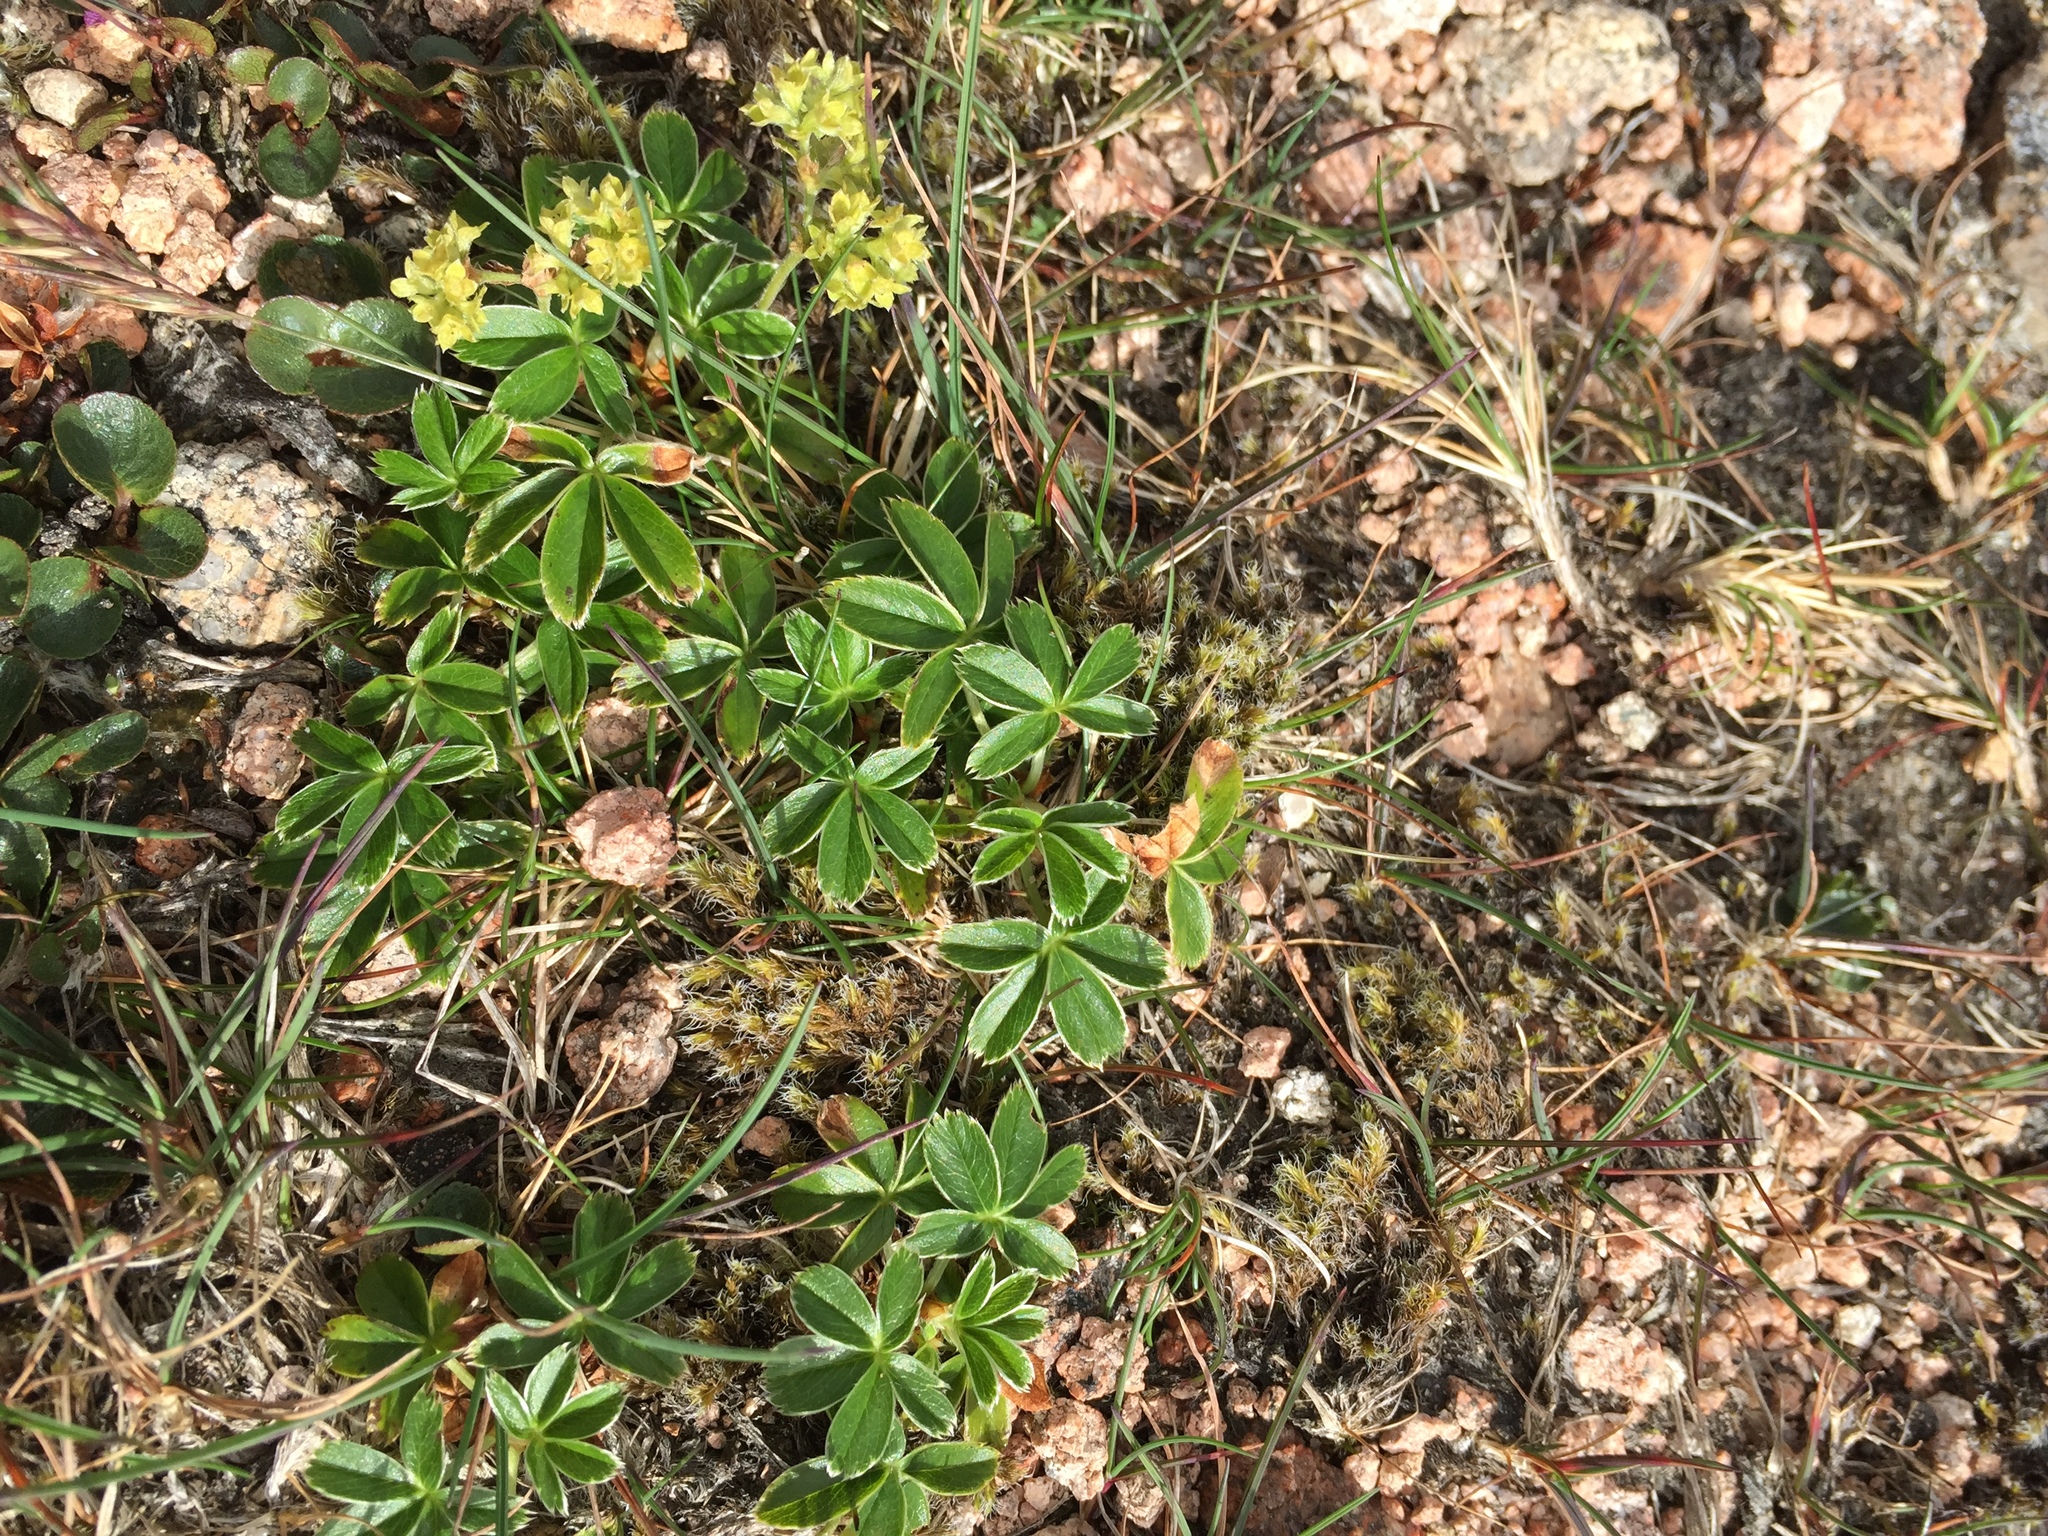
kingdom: Plantae
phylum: Tracheophyta
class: Magnoliopsida
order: Rosales
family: Rosaceae
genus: Alchemilla
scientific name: Alchemilla alpina
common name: Alpine lady's-mantle
